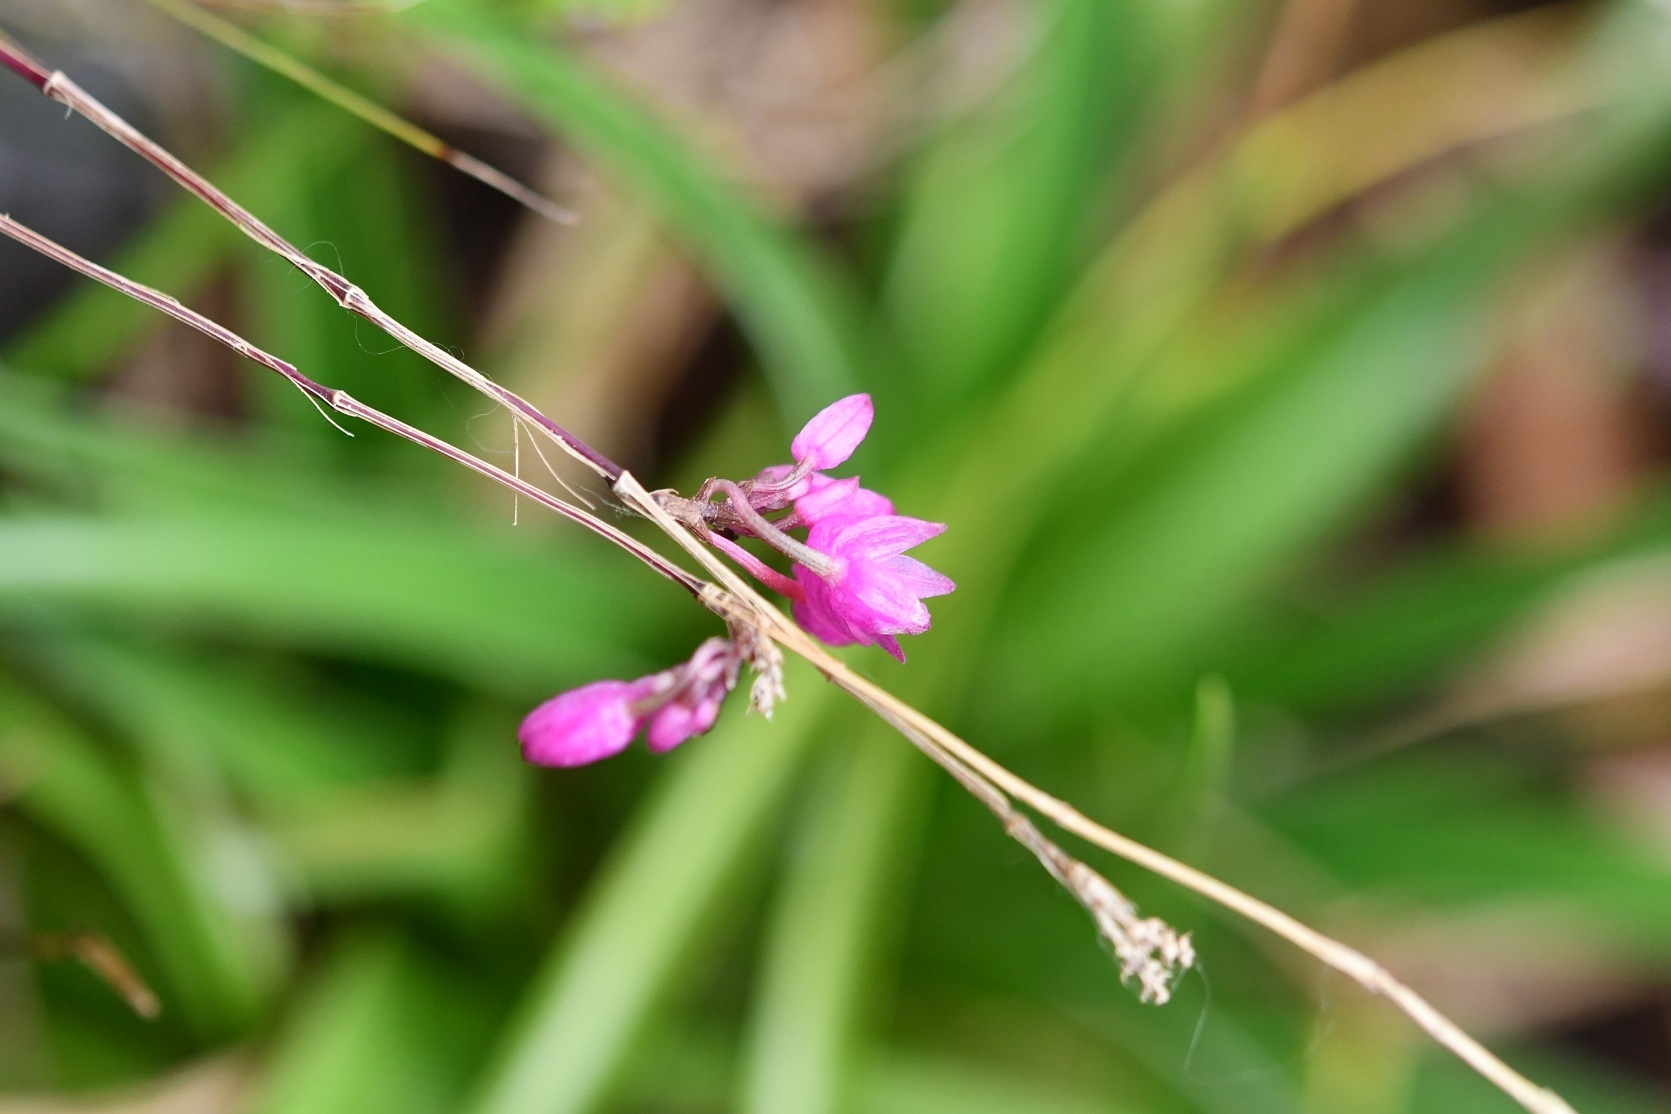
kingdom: Plantae
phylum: Tracheophyta
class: Liliopsida
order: Asparagales
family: Orchidaceae
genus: Domingoa
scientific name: Domingoa purpurea
